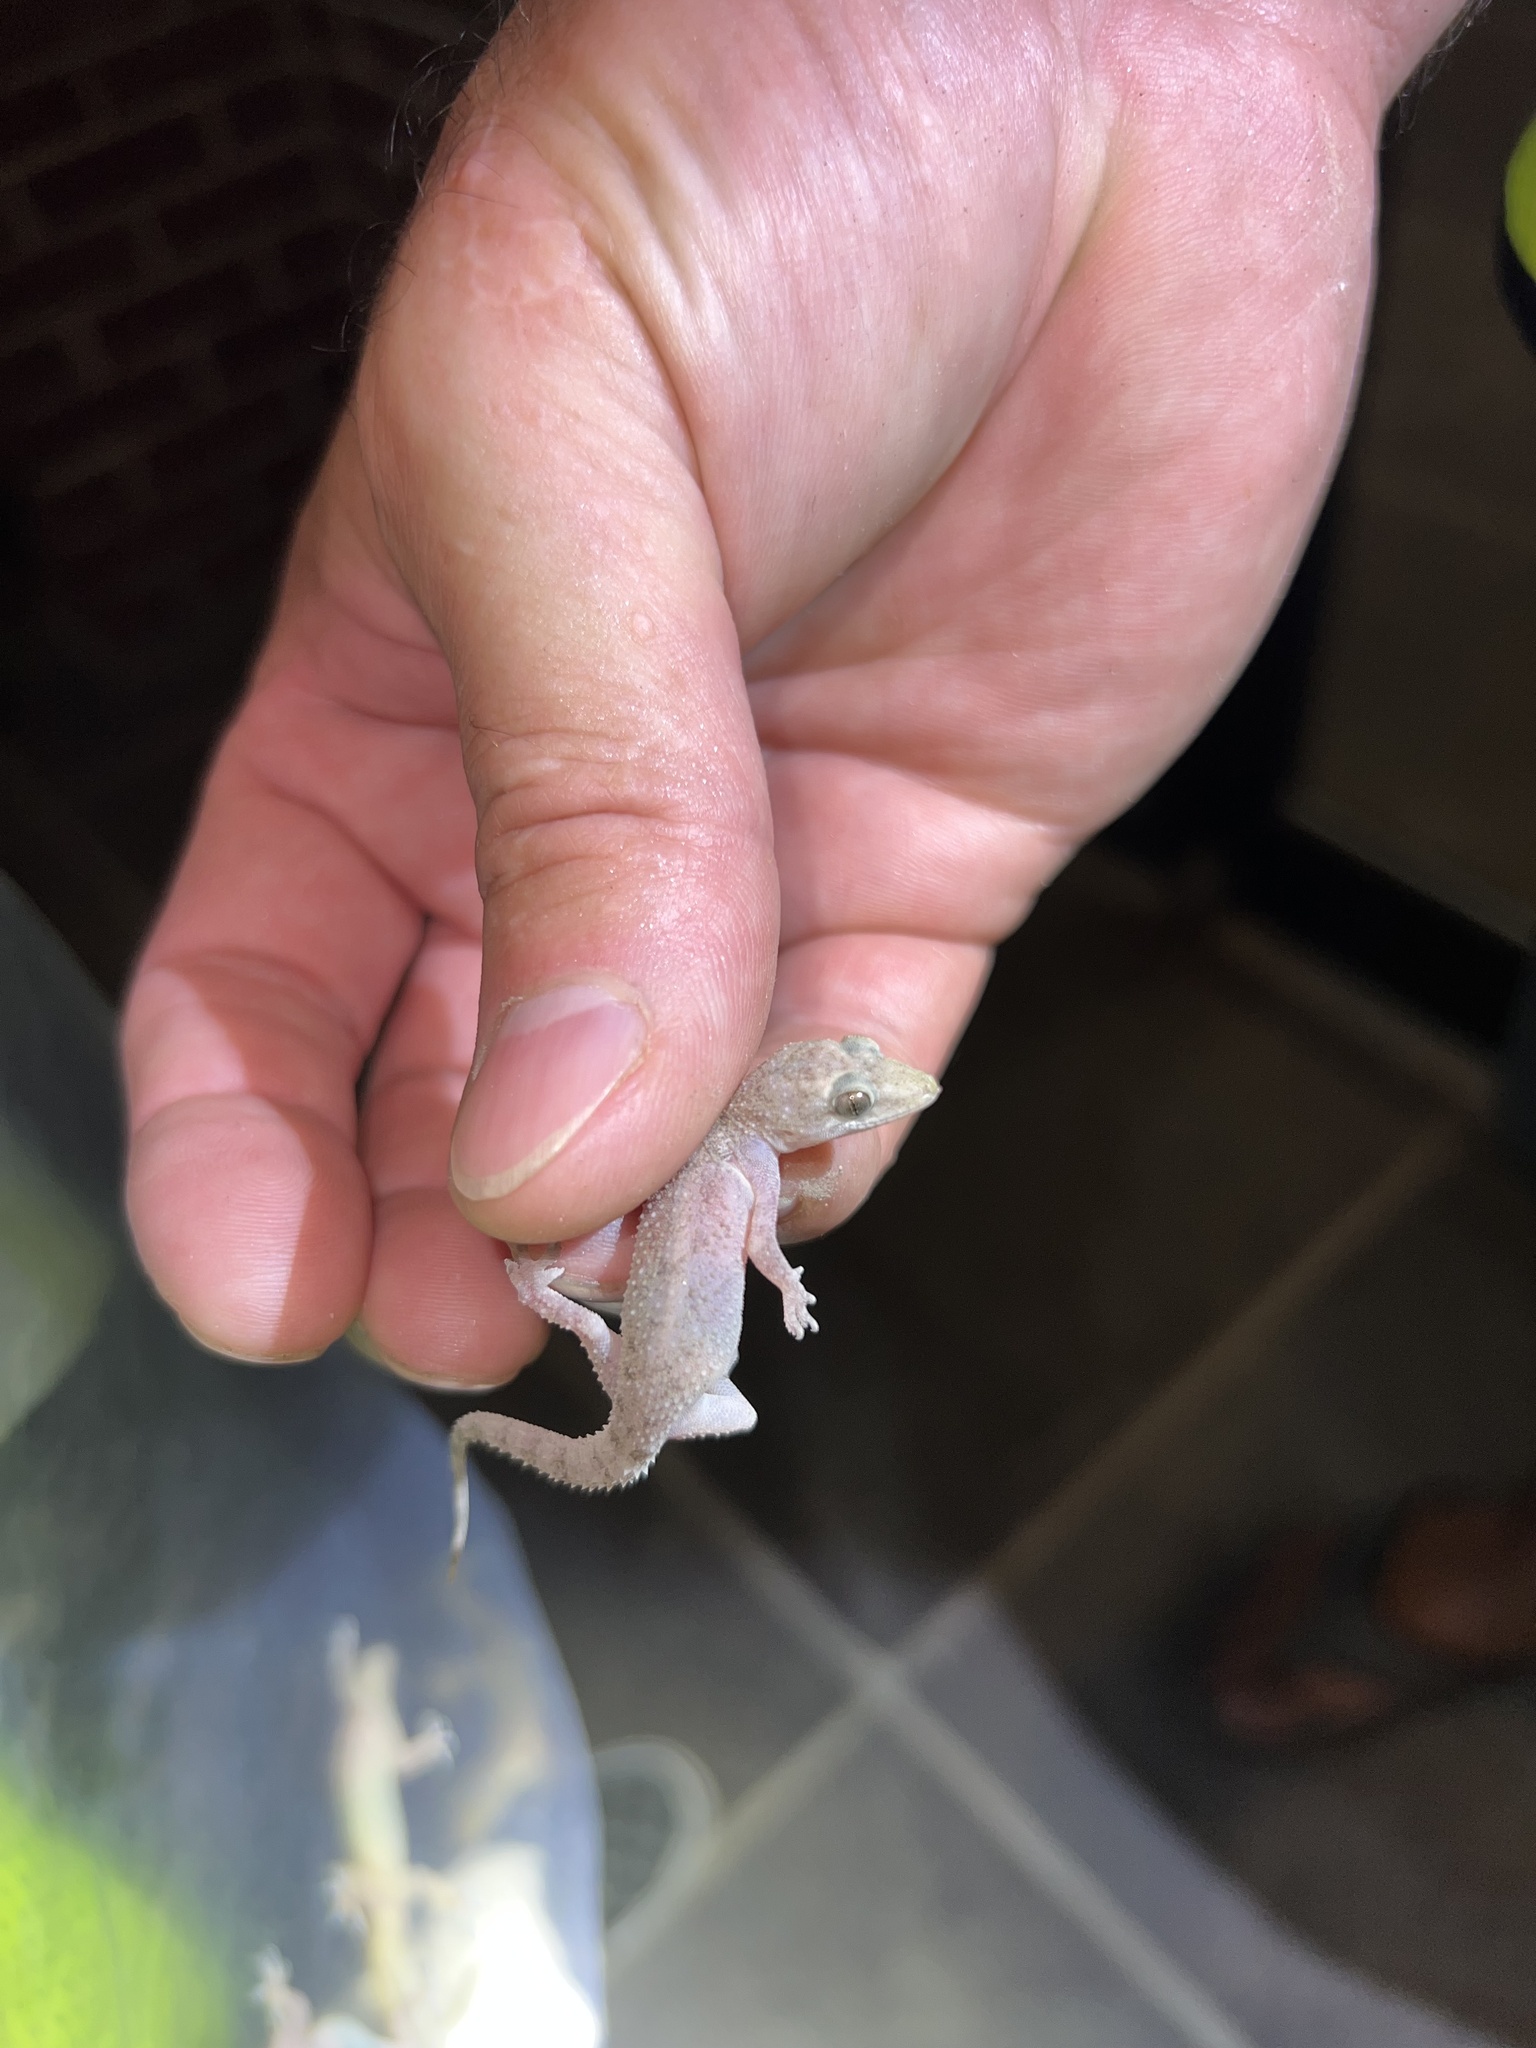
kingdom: Animalia
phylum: Chordata
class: Squamata
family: Gekkonidae
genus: Hemidactylus
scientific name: Hemidactylus parvimaculatus
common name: Spotted house gecko
